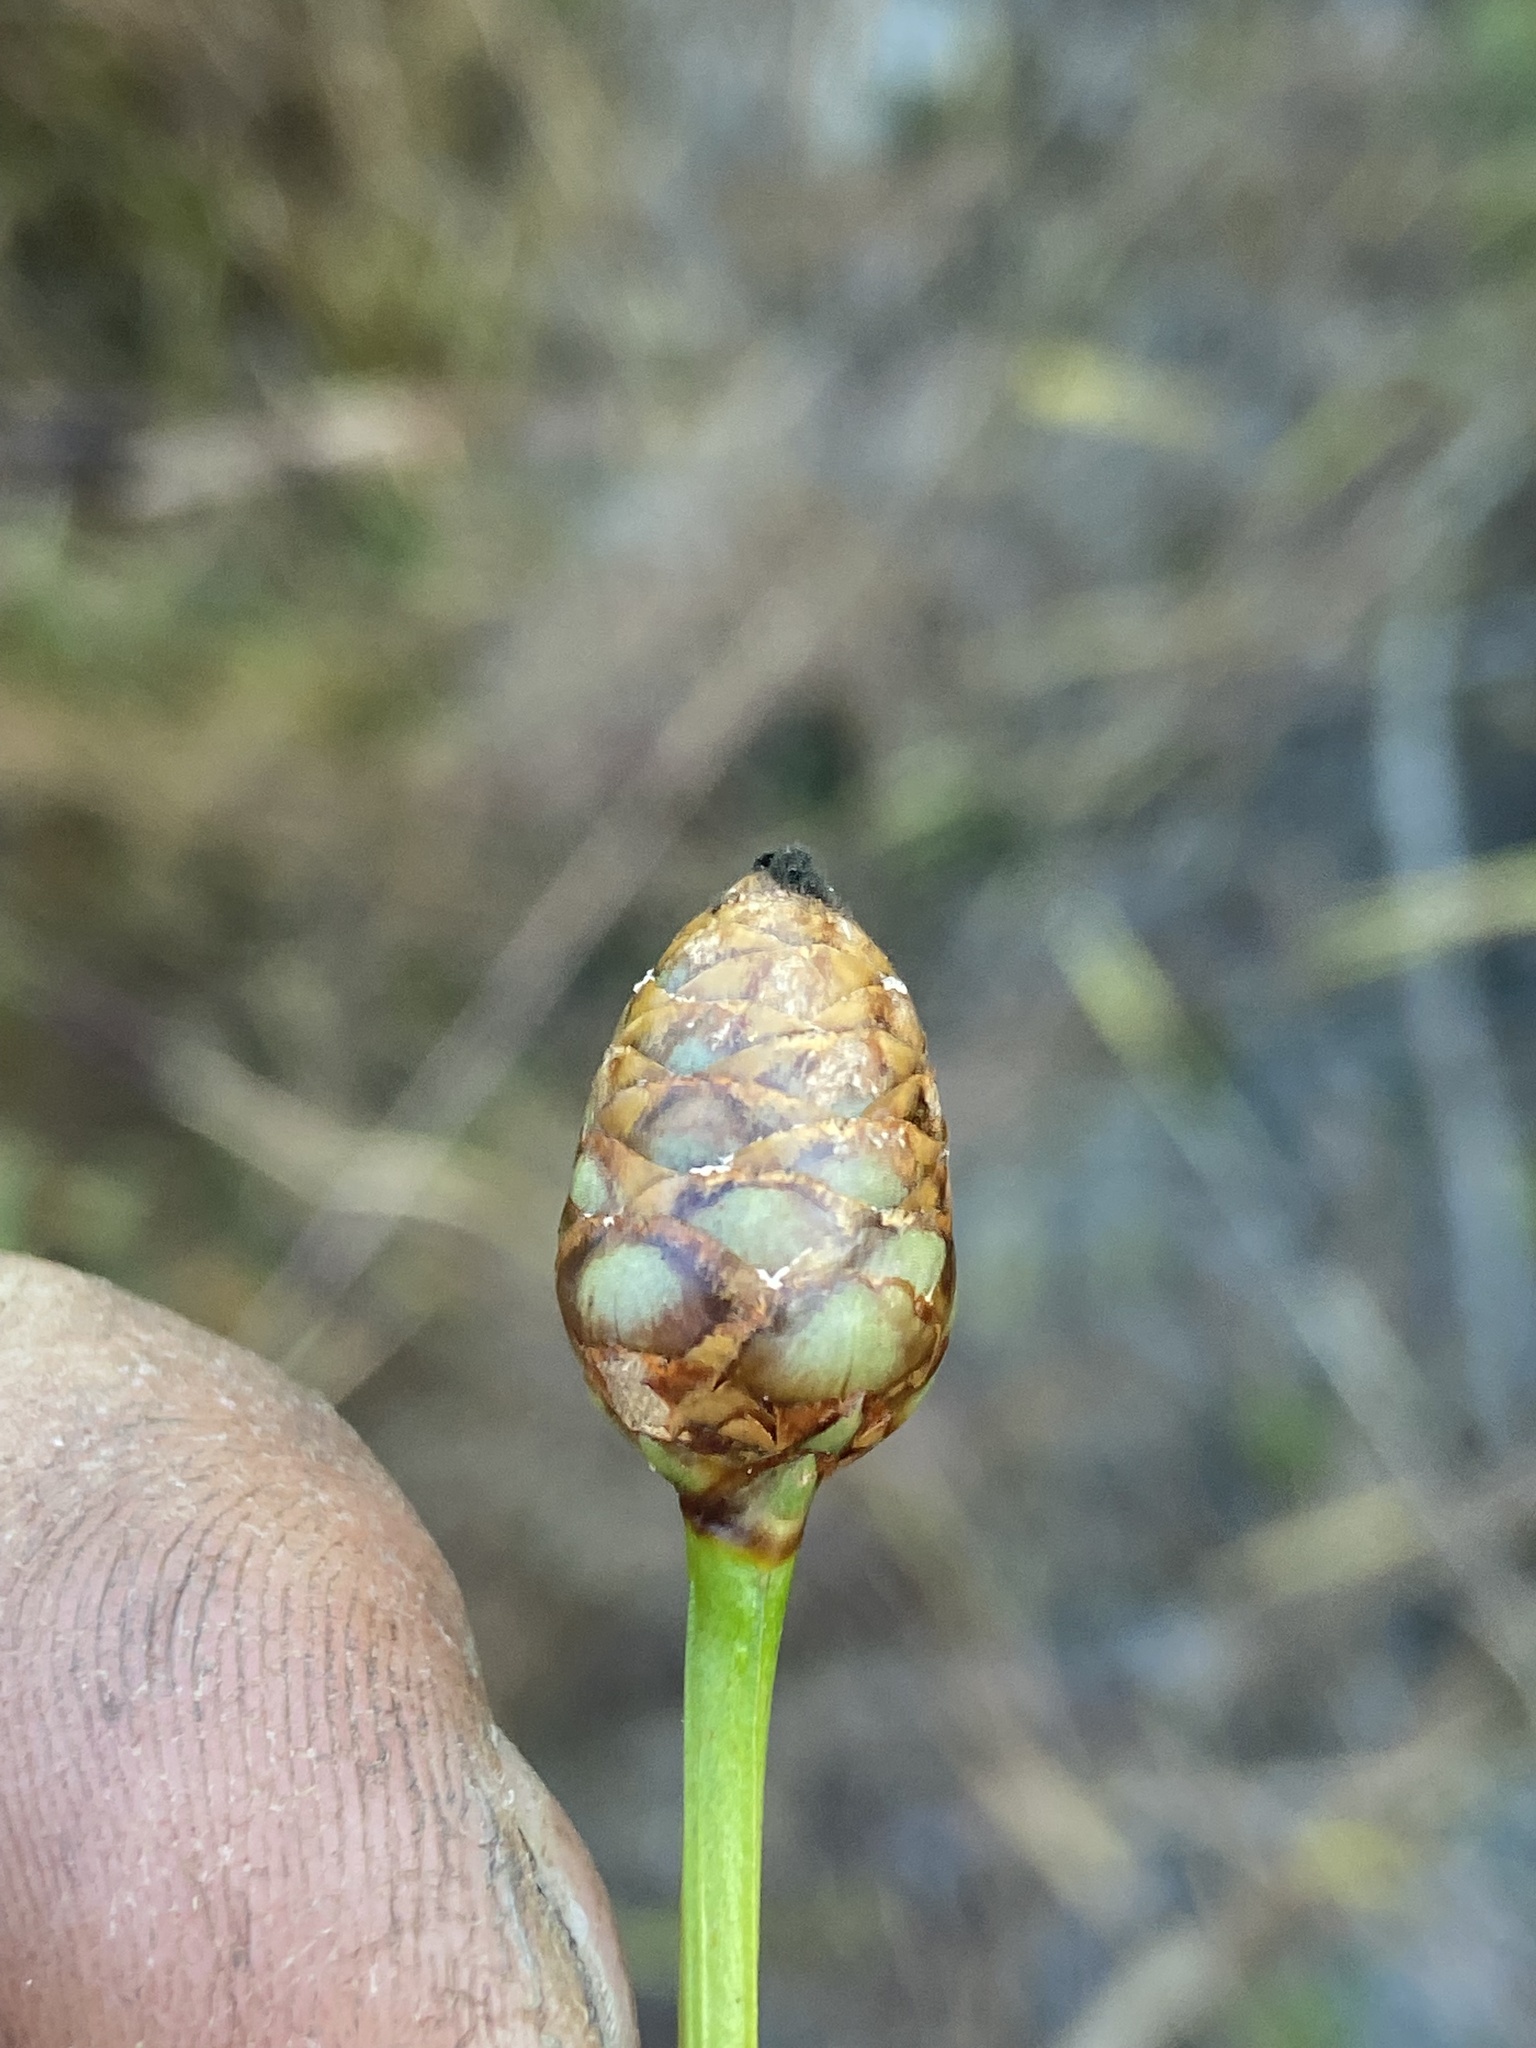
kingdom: Plantae
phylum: Tracheophyta
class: Liliopsida
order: Poales
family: Xyridaceae
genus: Xyris
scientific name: Xyris platylepis
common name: Tall yelloweyed grass
